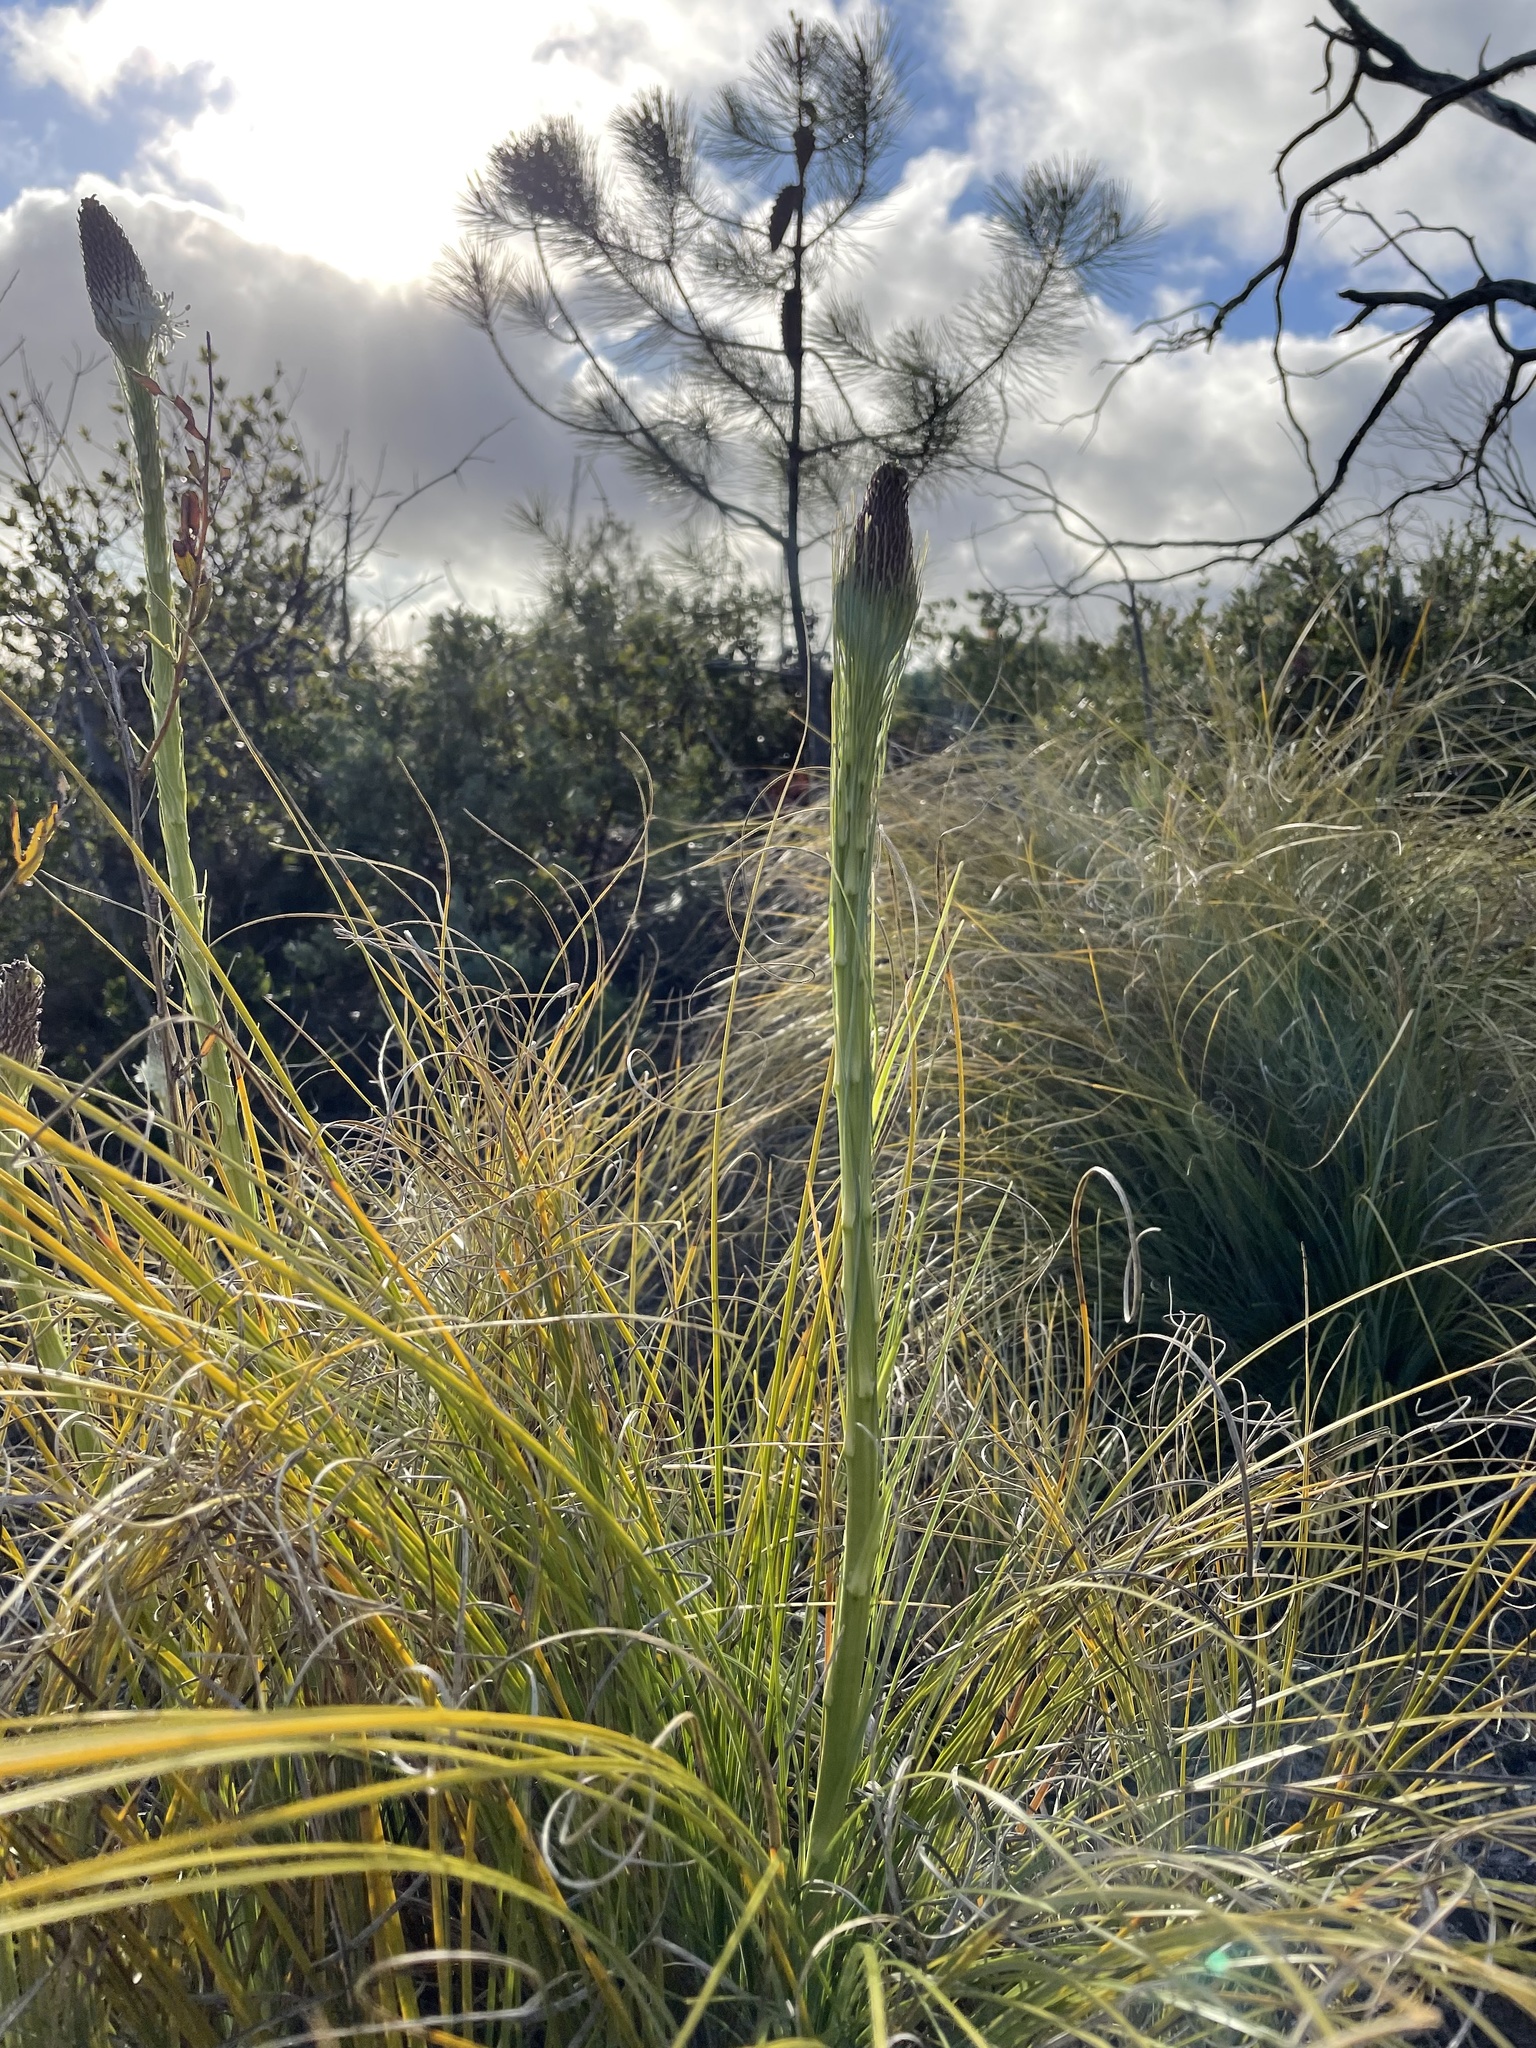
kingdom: Plantae
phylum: Tracheophyta
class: Liliopsida
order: Liliales
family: Melanthiaceae
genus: Xerophyllum
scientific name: Xerophyllum tenax
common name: Bear-grass
